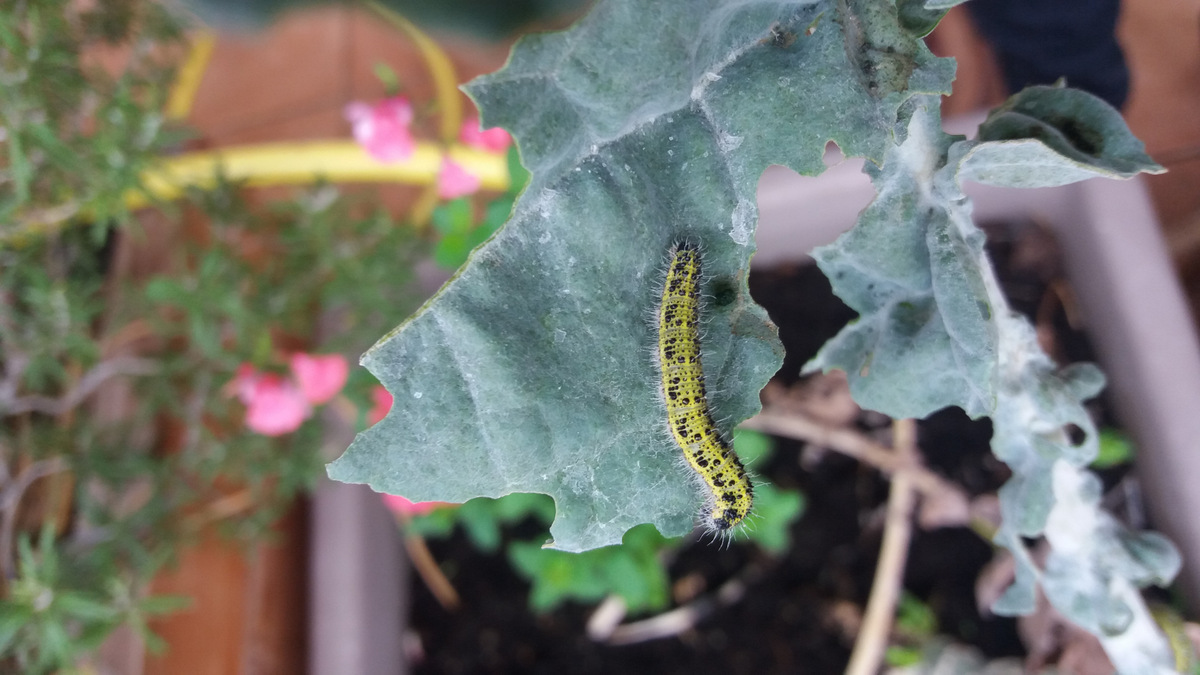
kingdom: Animalia
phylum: Arthropoda
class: Insecta
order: Lepidoptera
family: Pieridae
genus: Pieris
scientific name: Pieris brassicae
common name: Large white
